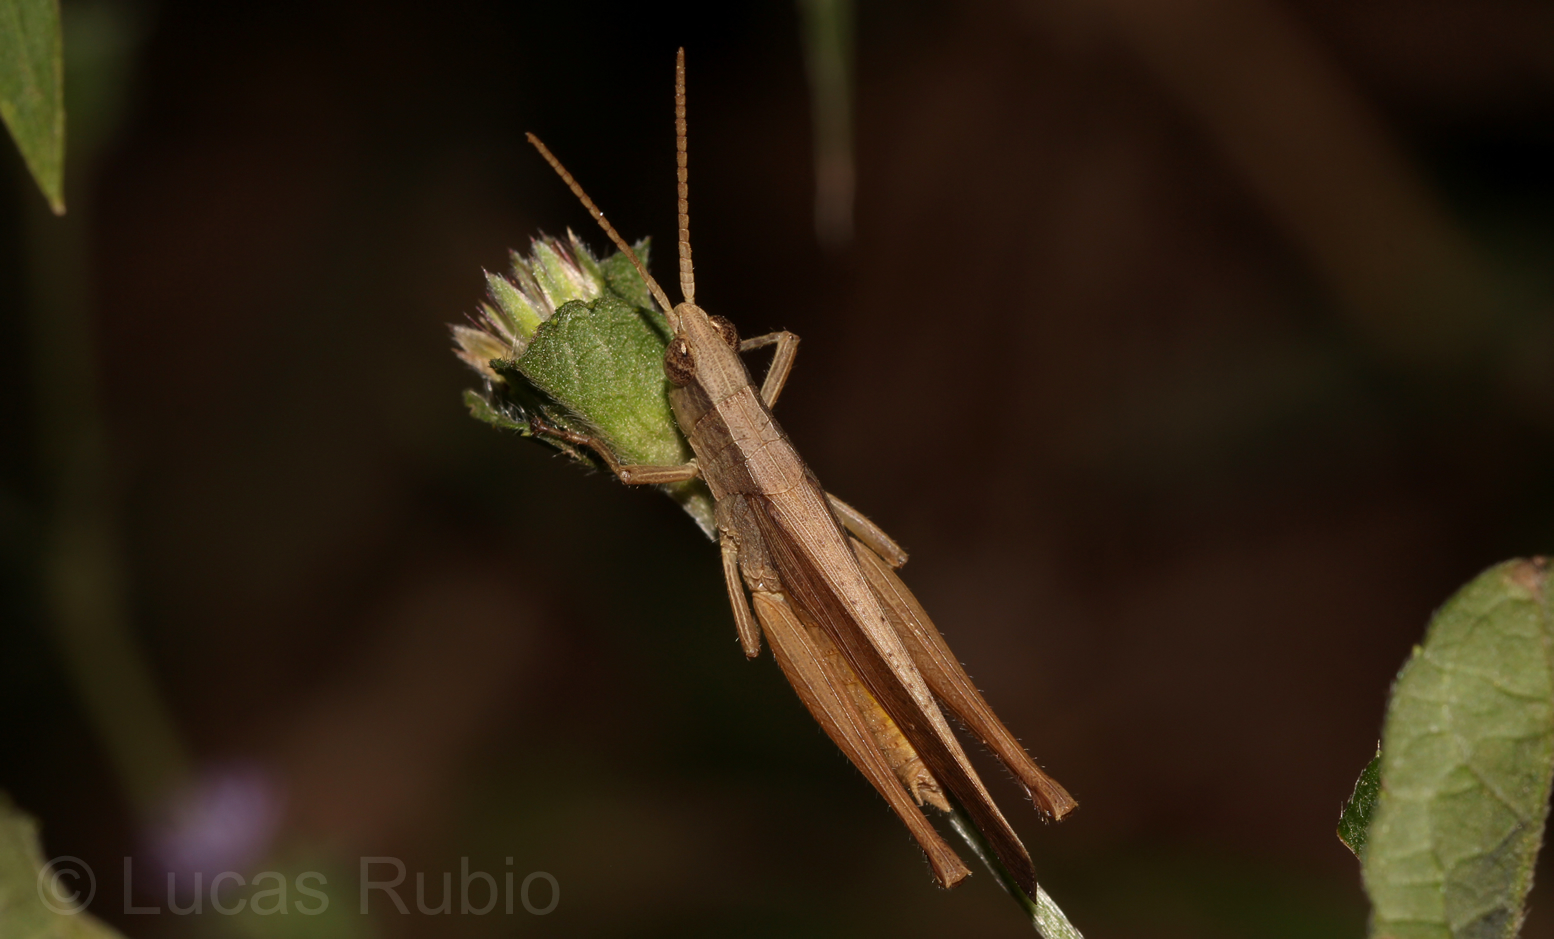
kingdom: Animalia
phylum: Arthropoda
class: Insecta
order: Orthoptera
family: Acrididae
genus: Eutryxalis
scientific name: Eutryxalis filata
